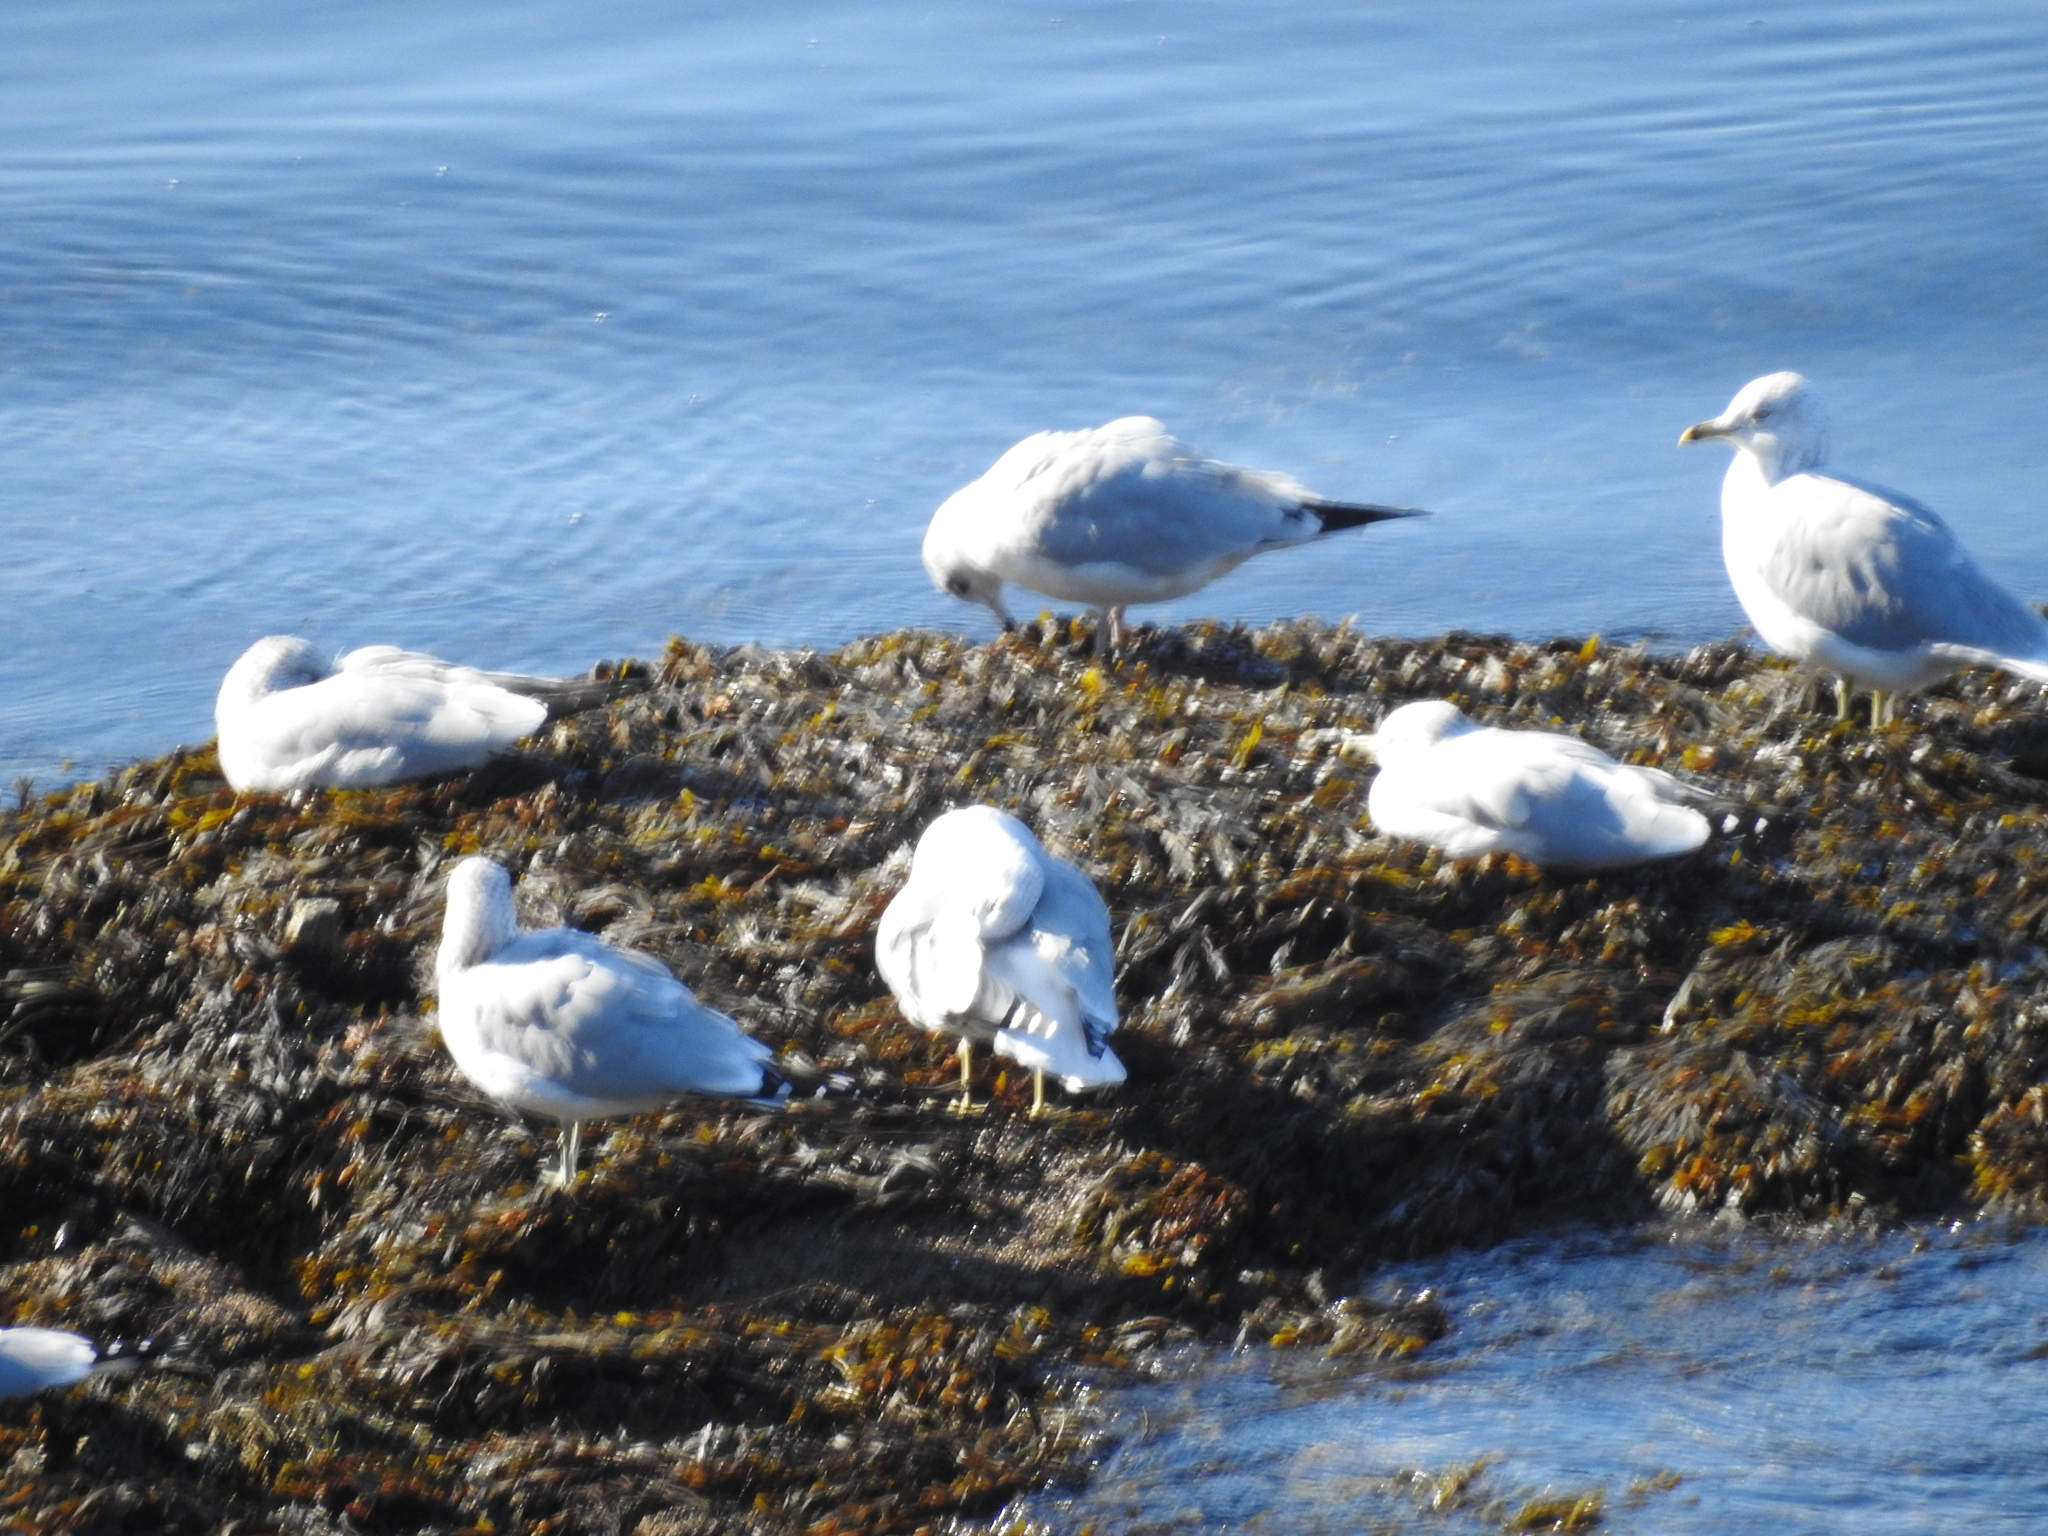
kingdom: Animalia
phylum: Chordata
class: Aves
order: Charadriiformes
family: Laridae
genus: Larus
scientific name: Larus delawarensis
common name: Ring-billed gull
